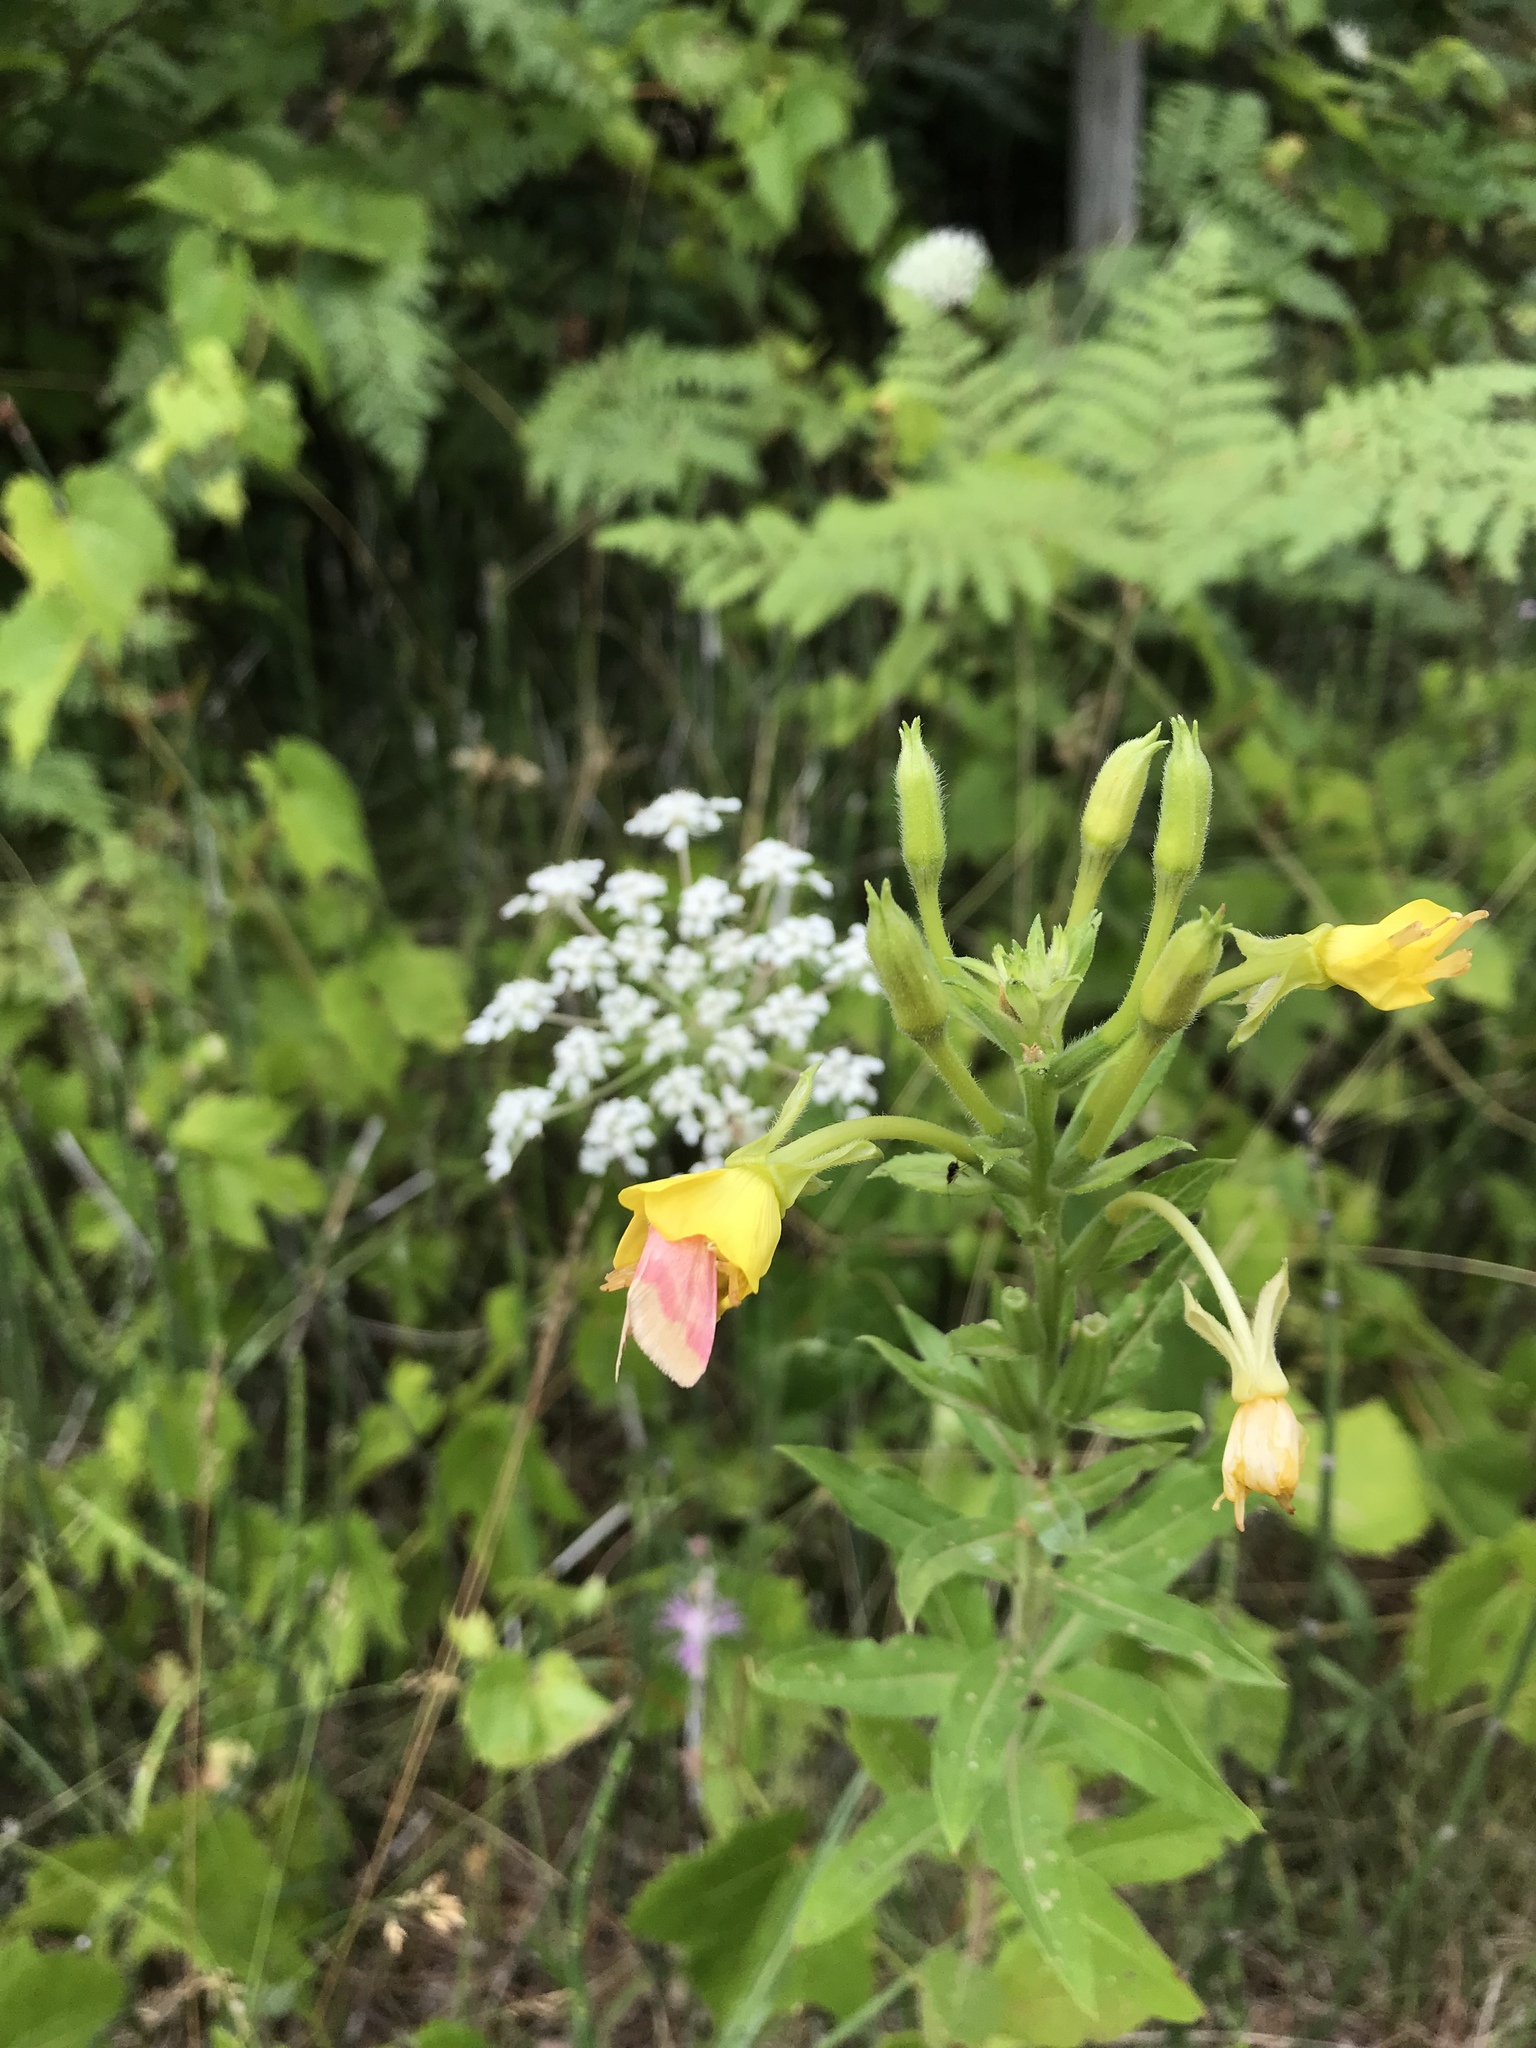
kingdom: Plantae
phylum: Tracheophyta
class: Magnoliopsida
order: Myrtales
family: Onagraceae
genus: Oenothera
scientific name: Oenothera parviflora
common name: Least evening-primrose
